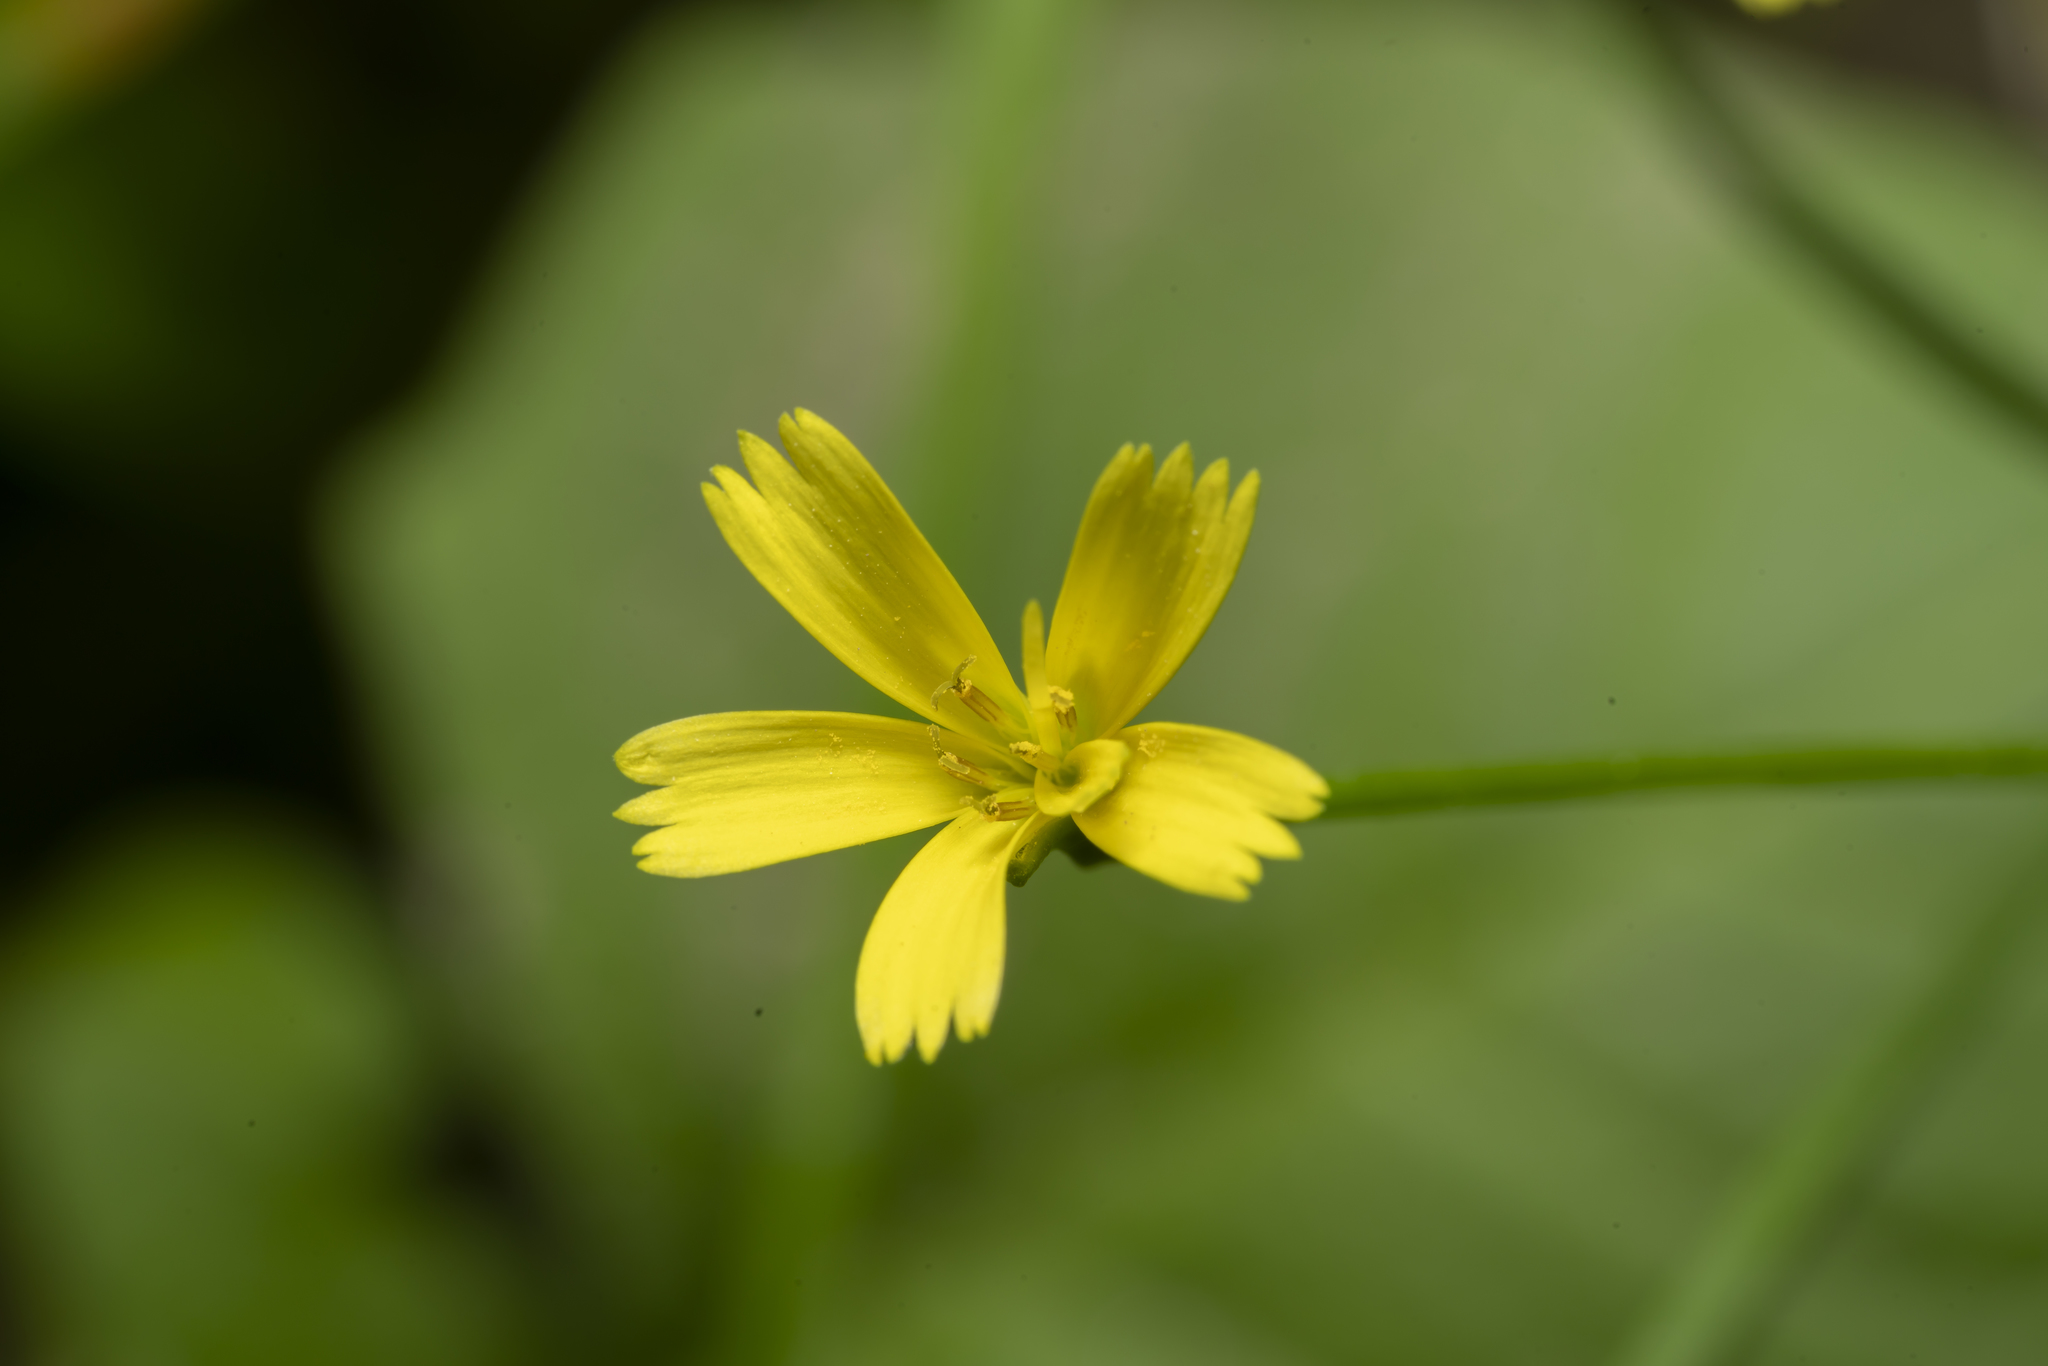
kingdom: Plantae
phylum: Tracheophyta
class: Magnoliopsida
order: Asterales
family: Asteraceae
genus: Rhagadiolus
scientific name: Rhagadiolus edulis
